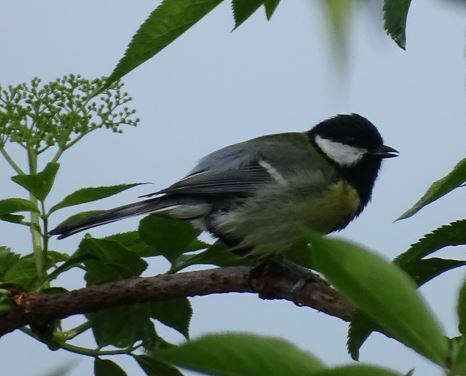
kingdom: Animalia
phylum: Chordata
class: Aves
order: Passeriformes
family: Paridae
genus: Parus
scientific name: Parus major
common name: Great tit
